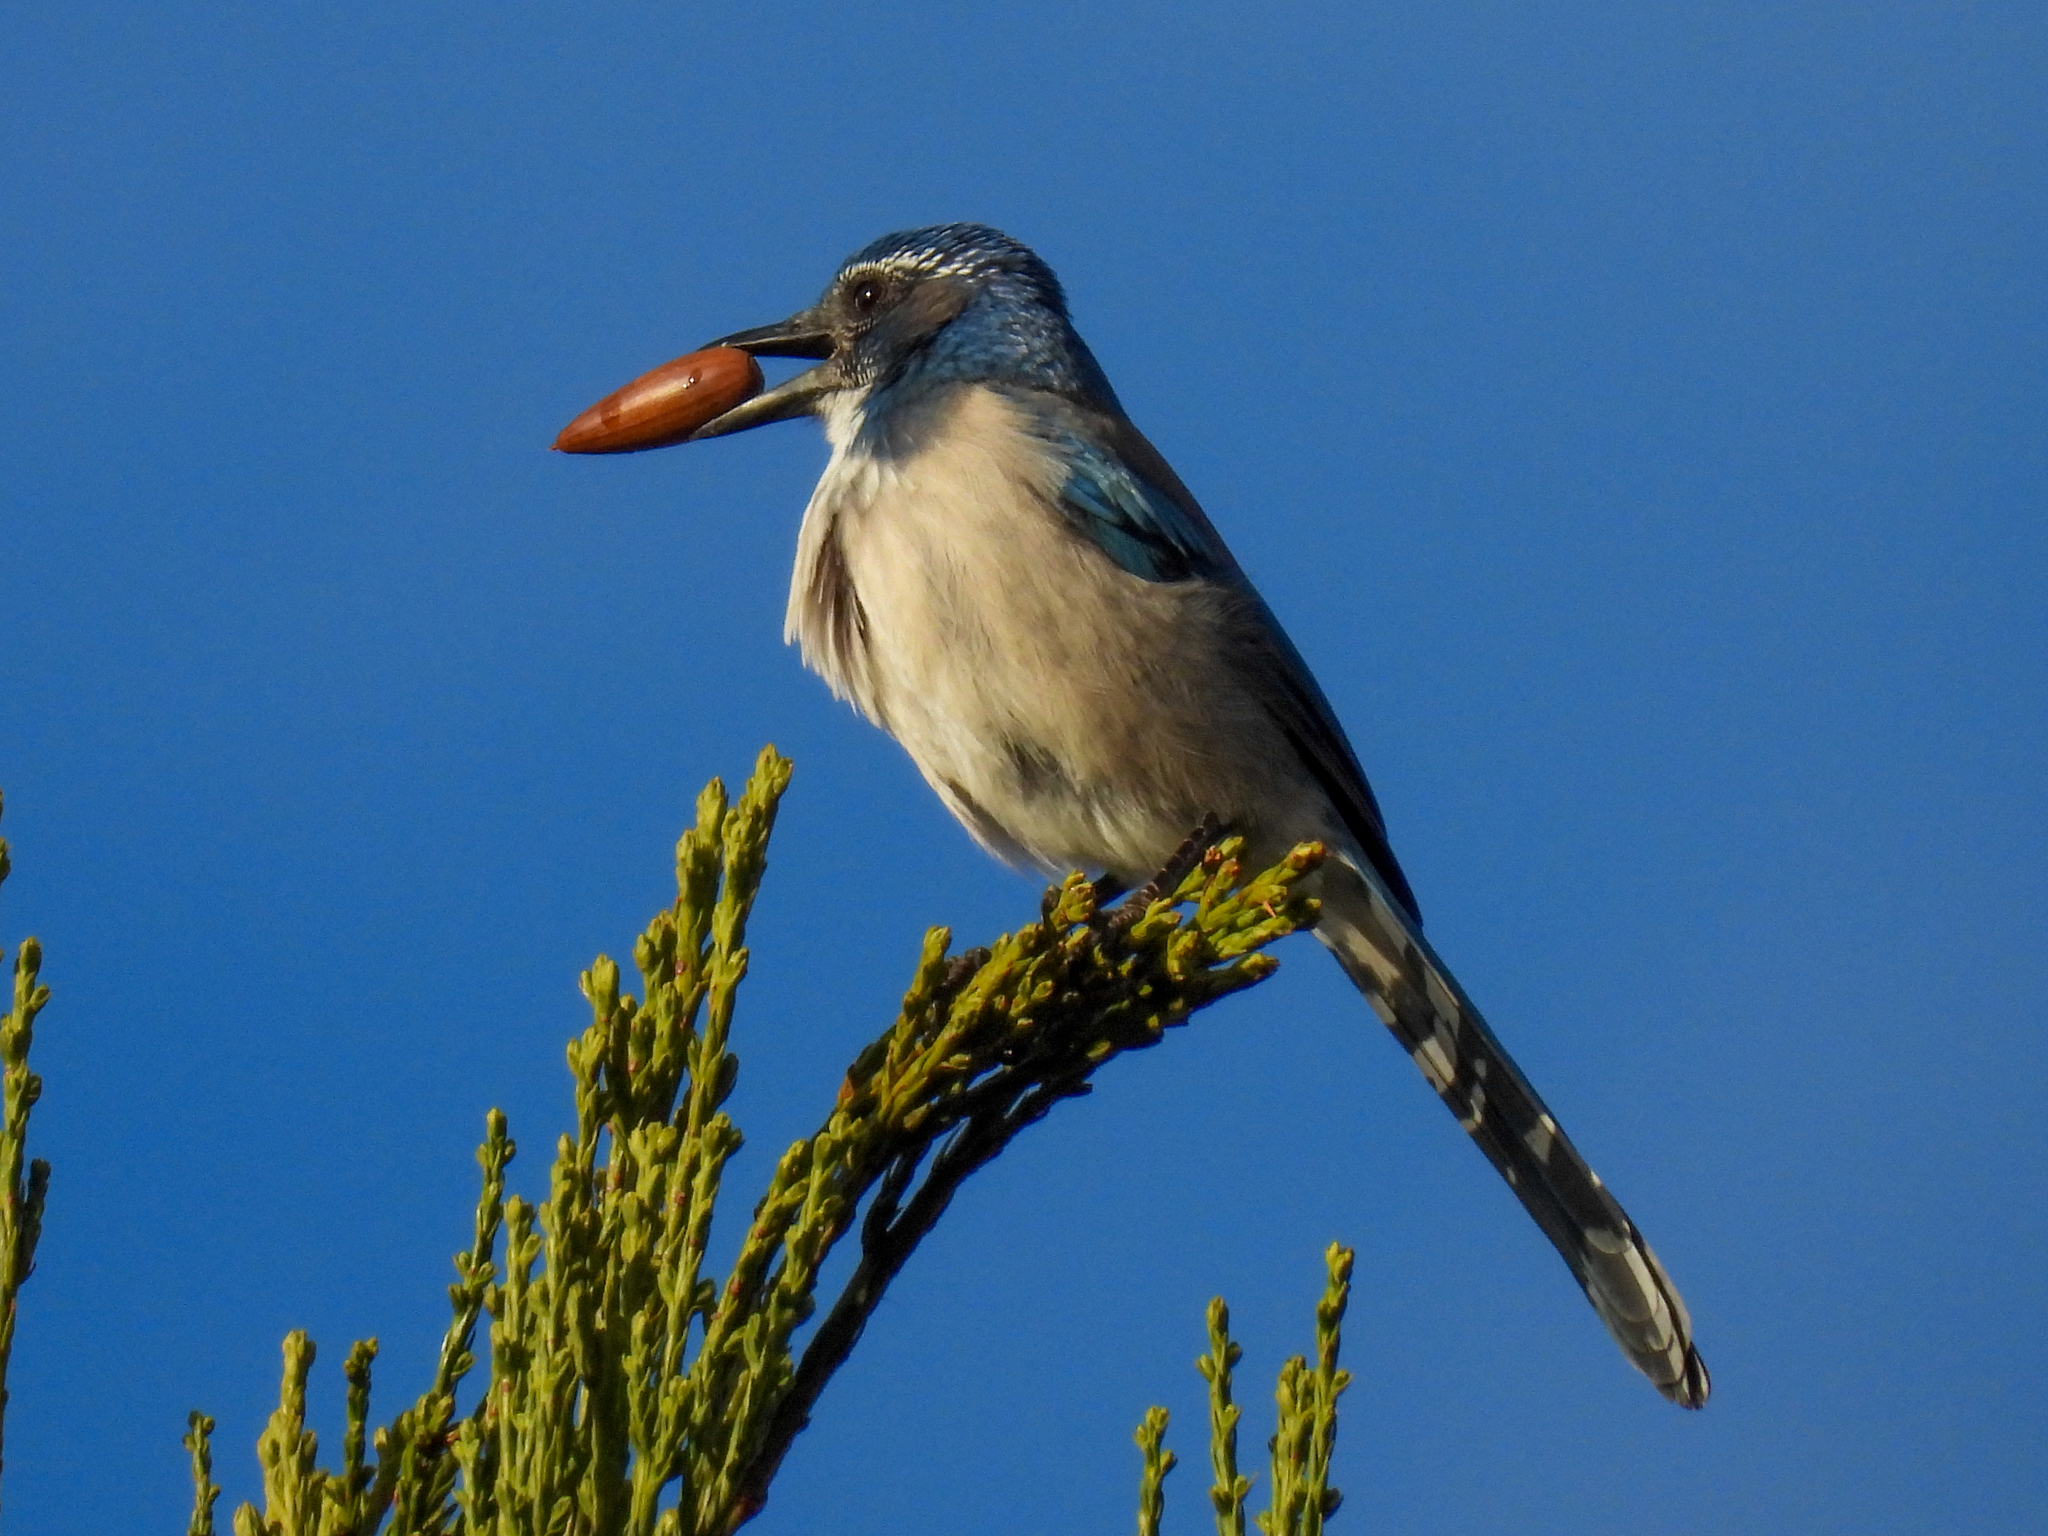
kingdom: Animalia
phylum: Chordata
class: Aves
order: Passeriformes
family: Corvidae
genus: Aphelocoma
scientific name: Aphelocoma californica
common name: California scrub-jay
